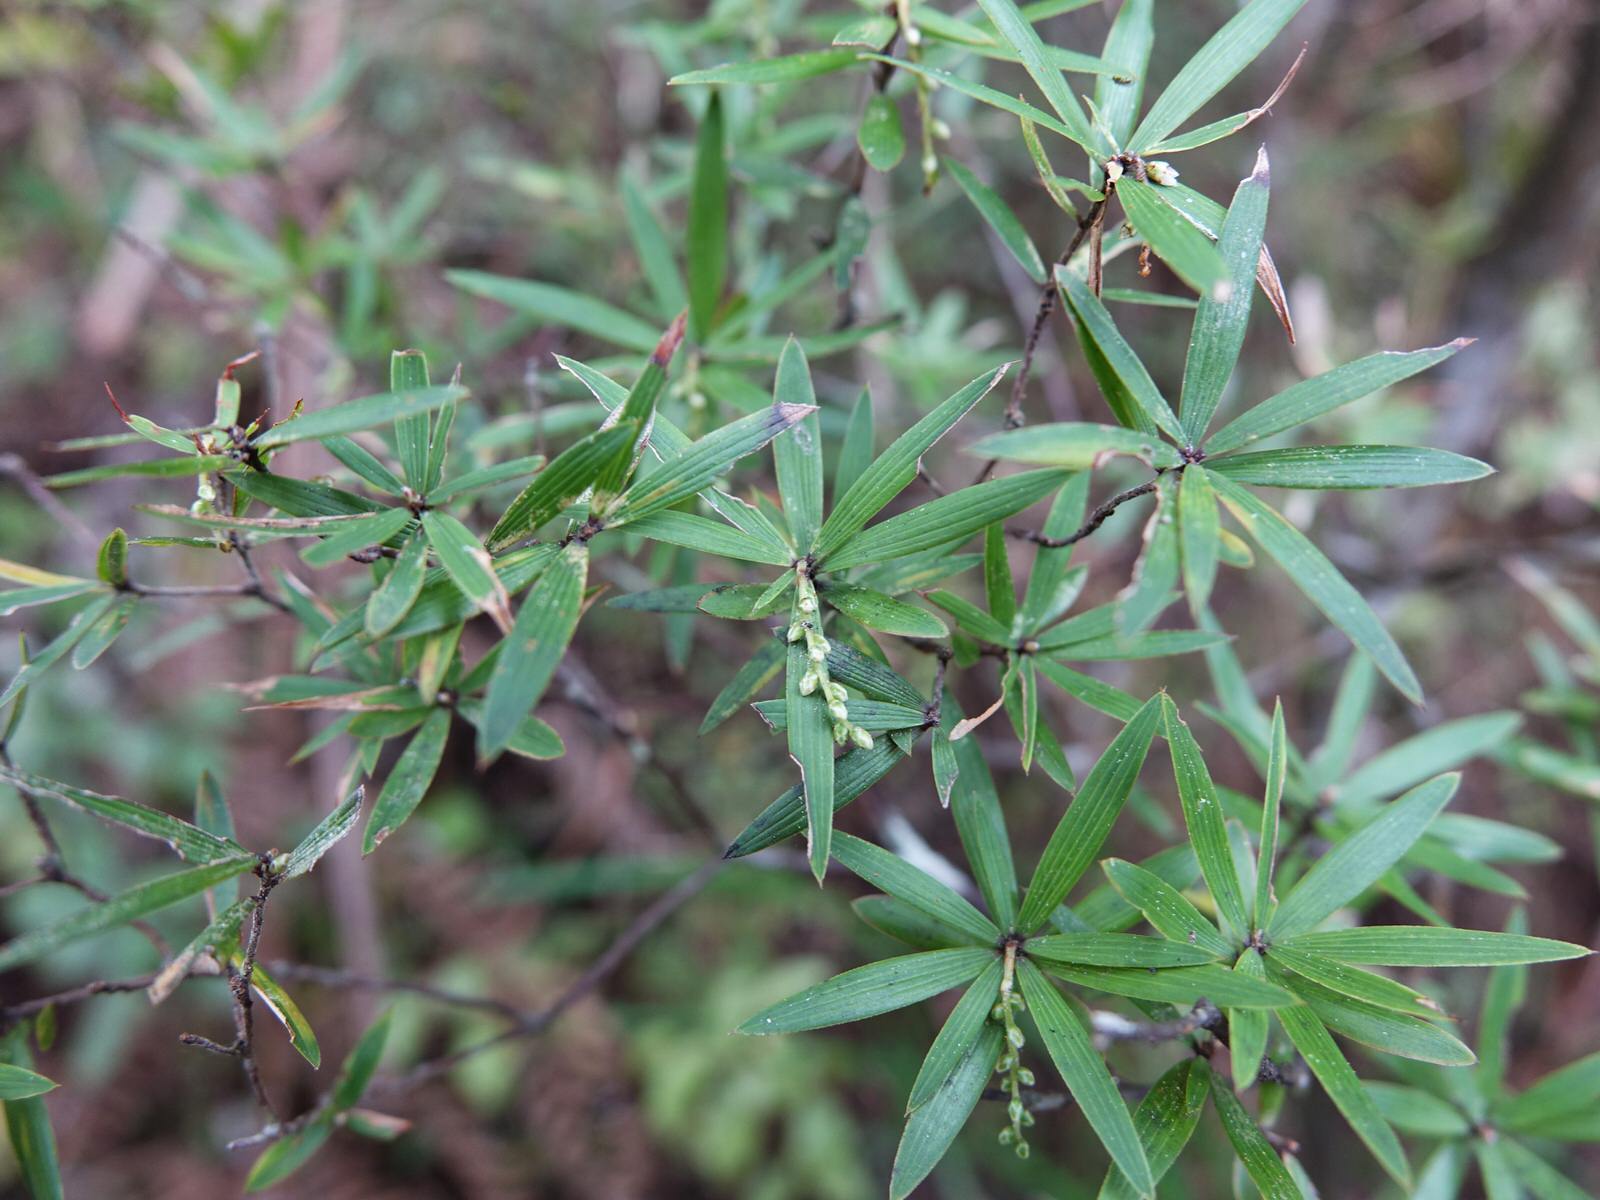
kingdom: Plantae
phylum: Tracheophyta
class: Magnoliopsida
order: Ericales
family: Ericaceae
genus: Leucopogon
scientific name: Leucopogon fasciculatus
